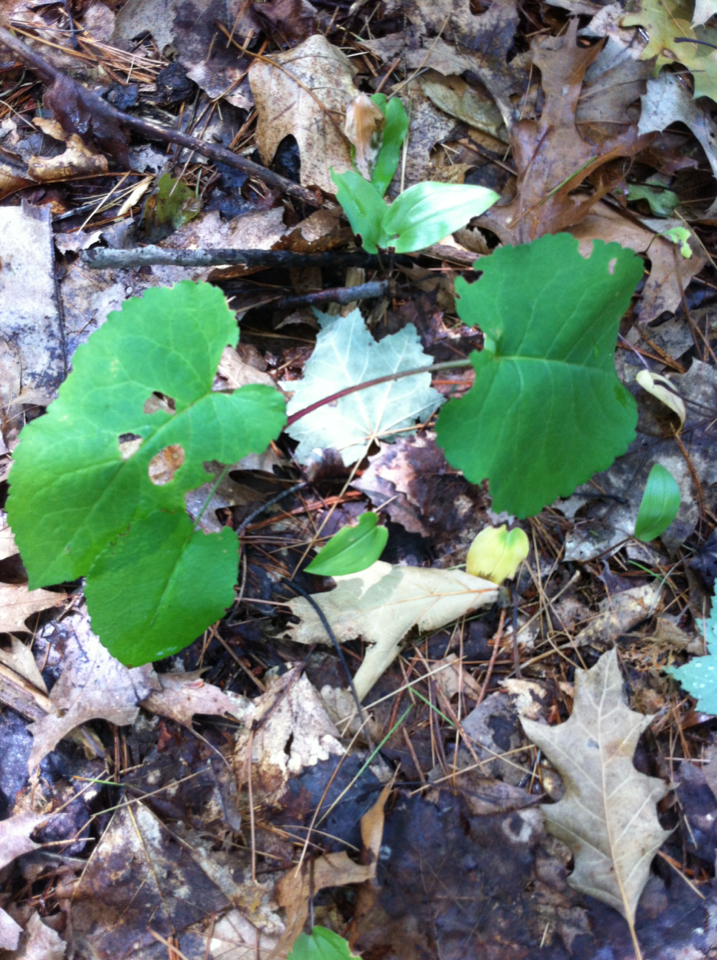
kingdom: Plantae
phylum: Tracheophyta
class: Magnoliopsida
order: Asterales
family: Asteraceae
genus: Eurybia
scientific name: Eurybia macrophylla
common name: Big-leaved aster
